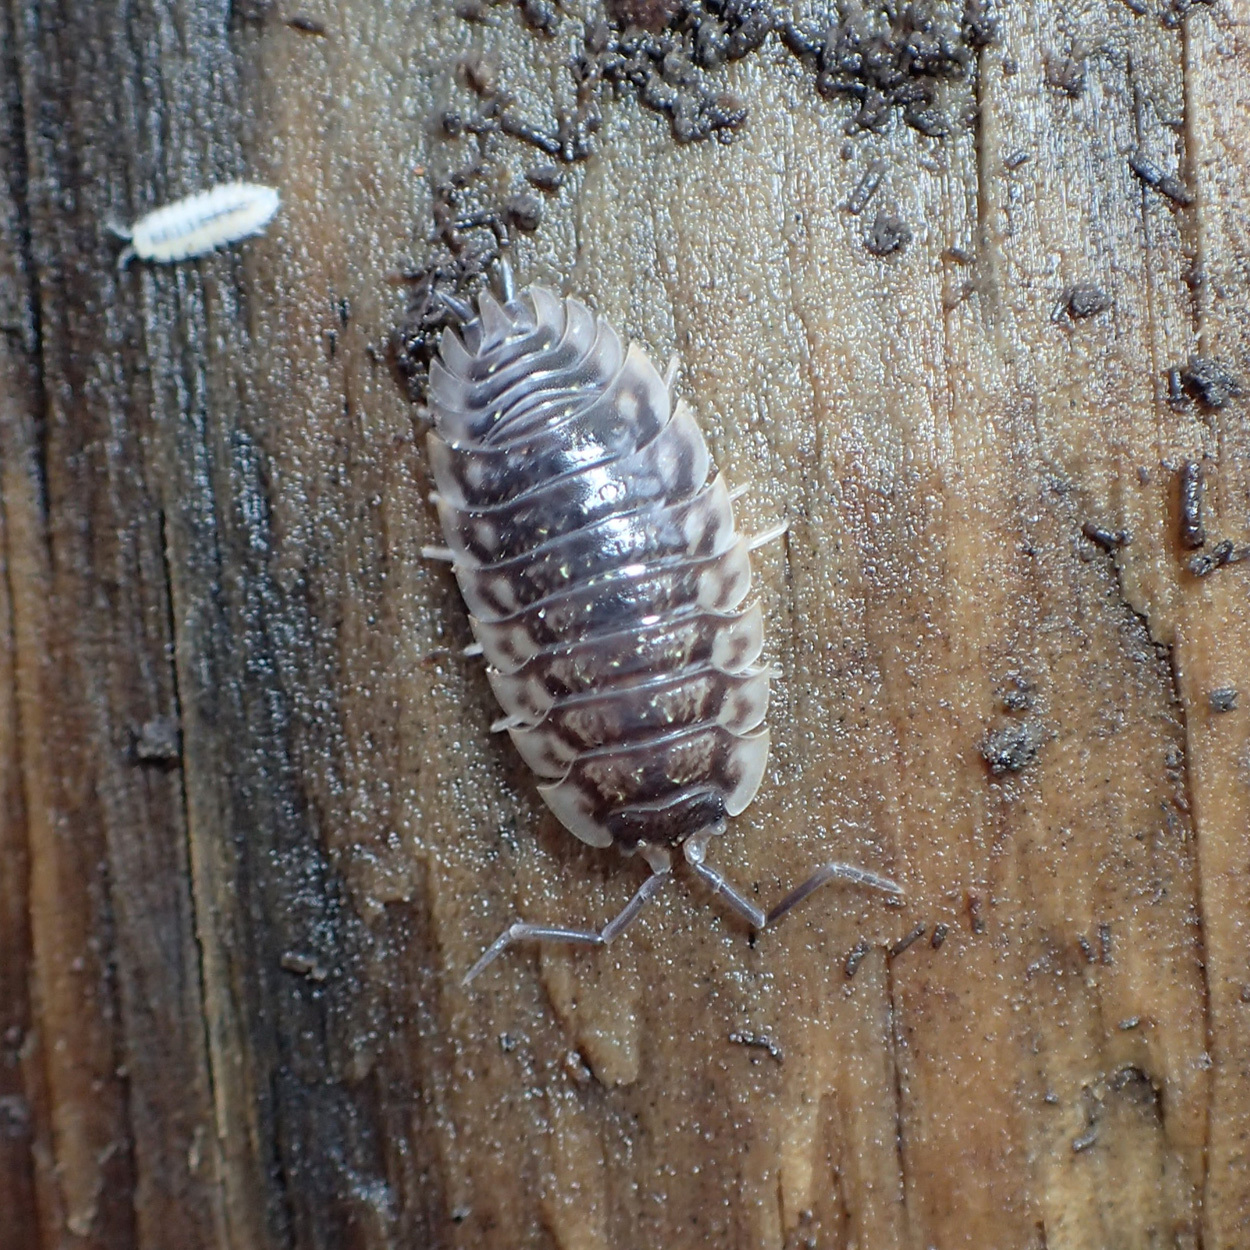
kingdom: Animalia
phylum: Arthropoda
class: Malacostraca
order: Isopoda
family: Oniscidae
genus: Oniscus
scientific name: Oniscus asellus
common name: Common shiny woodlouse
